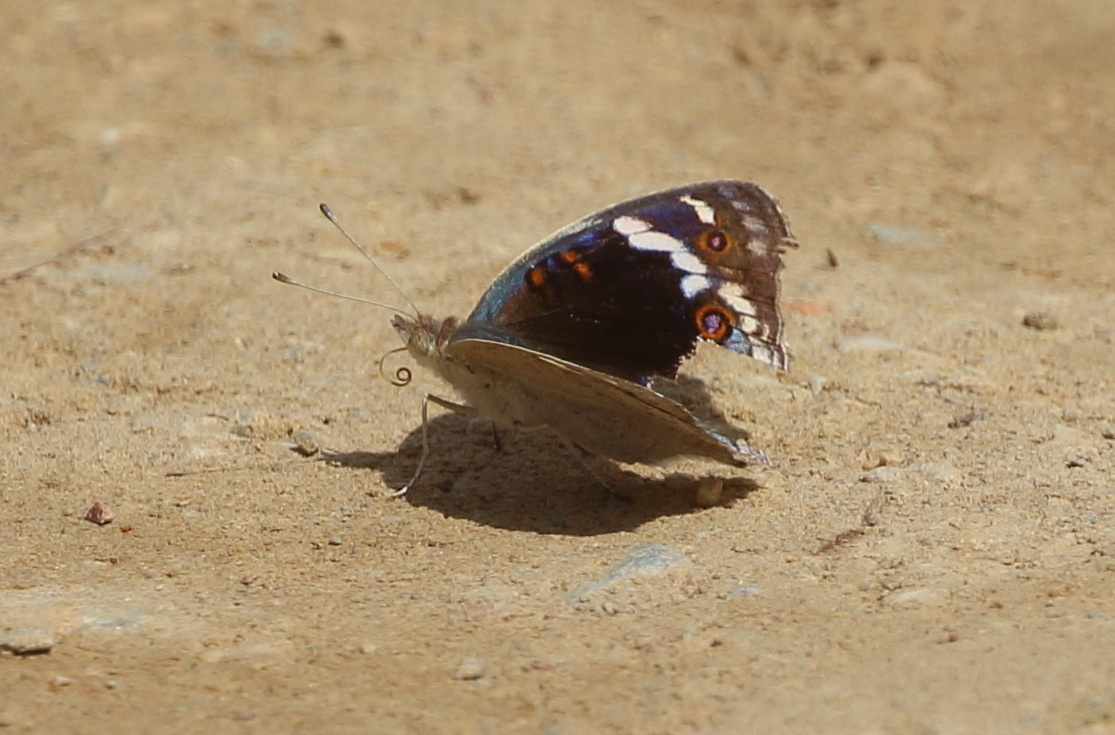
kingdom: Animalia
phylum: Arthropoda
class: Insecta
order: Lepidoptera
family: Nymphalidae
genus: Junonia
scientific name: Junonia orithya
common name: Blue pansy
